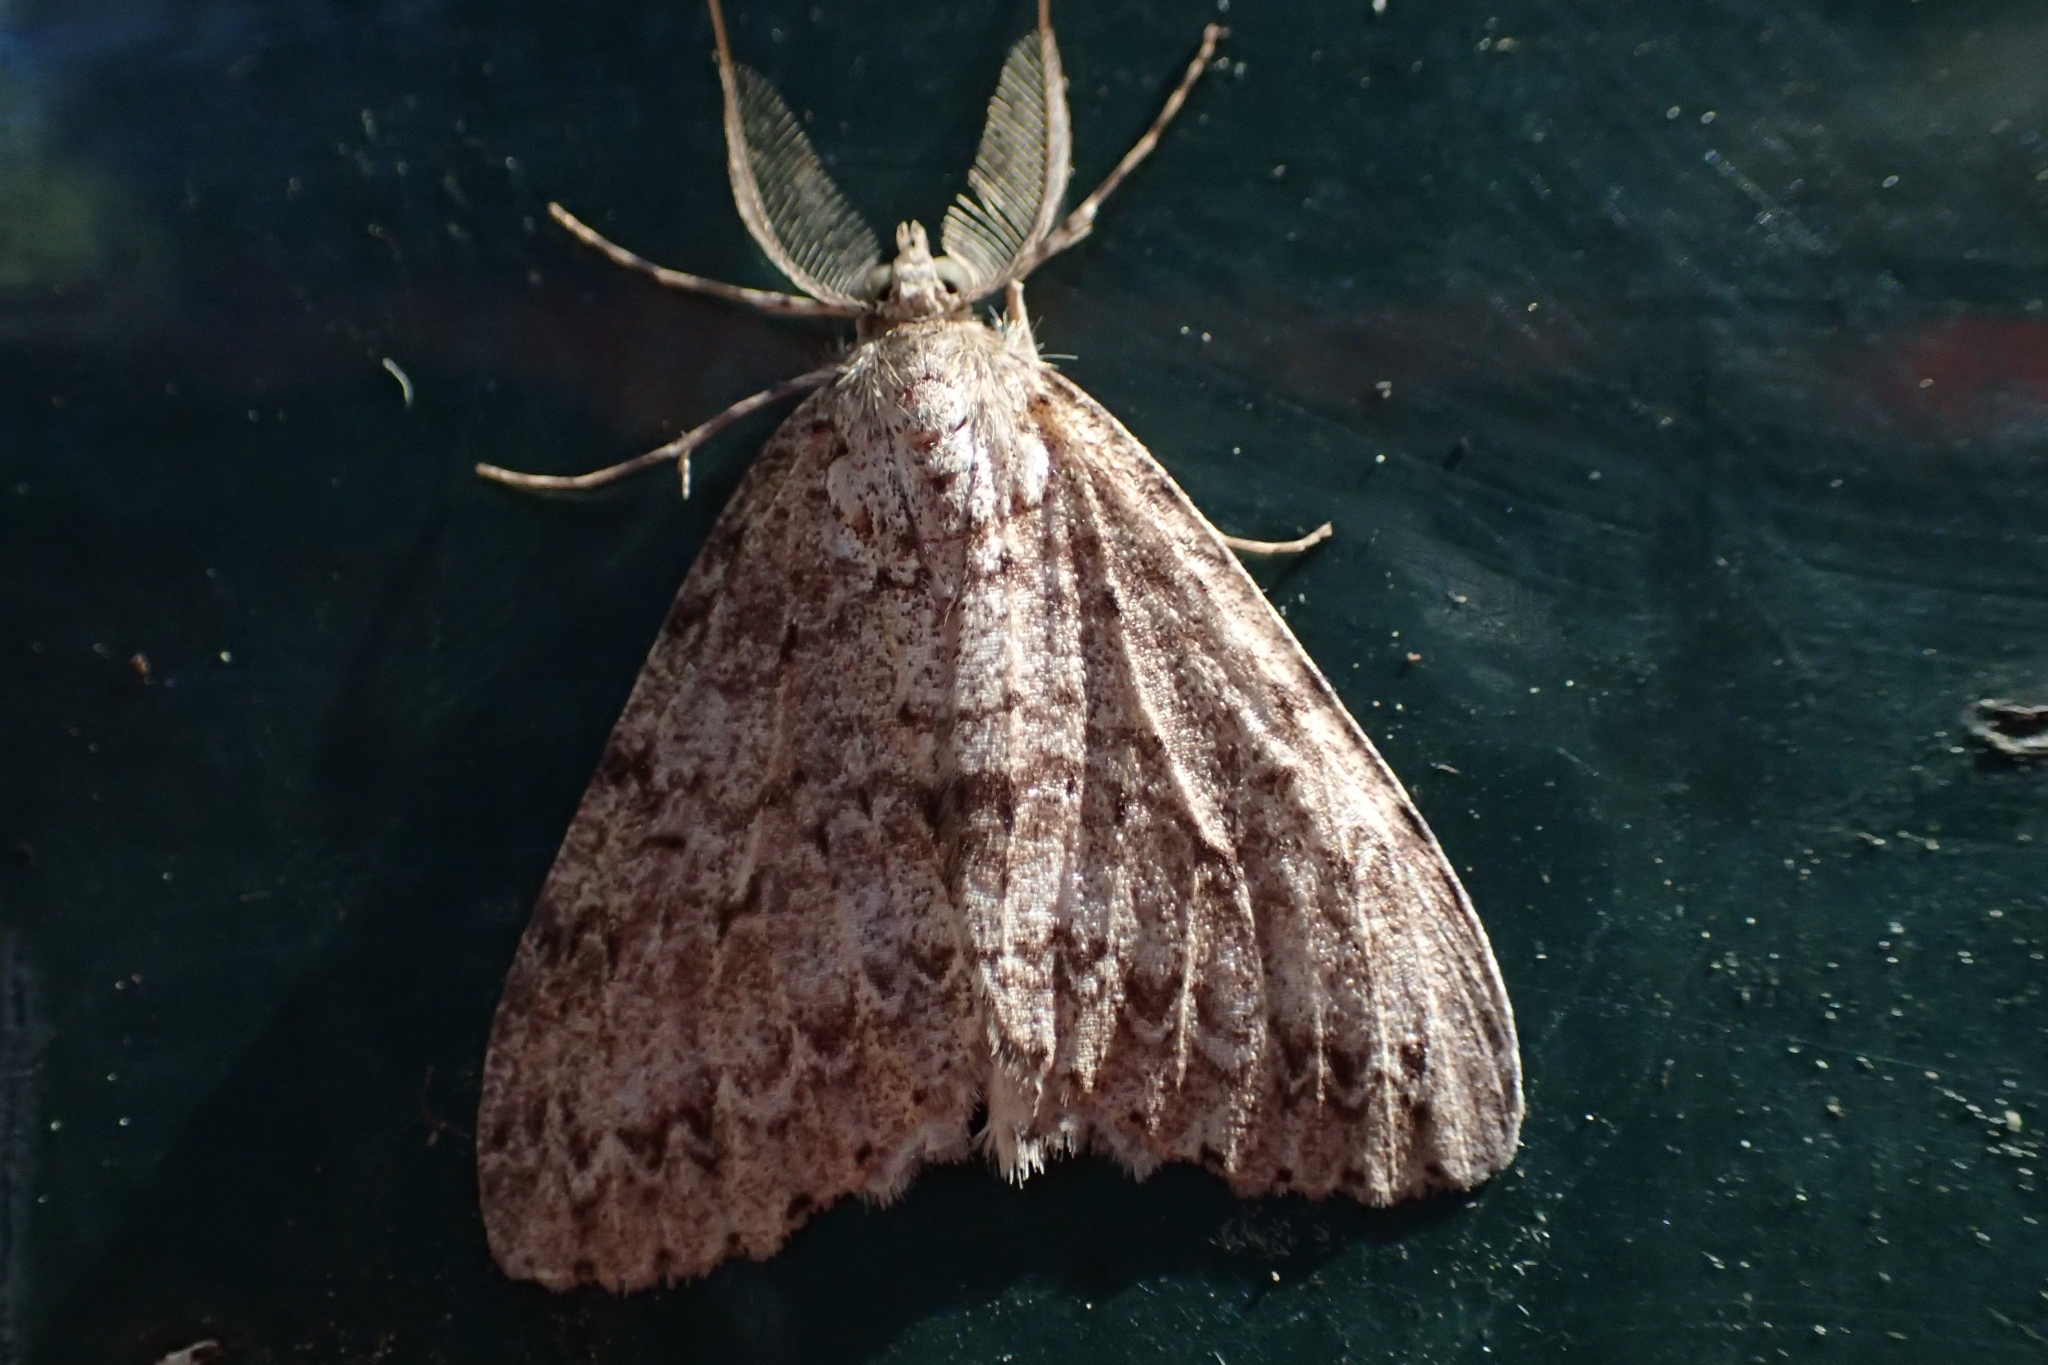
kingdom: Animalia
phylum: Arthropoda
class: Insecta
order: Lepidoptera
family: Geometridae
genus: Pseudocoremia
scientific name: Pseudocoremia fenerata
